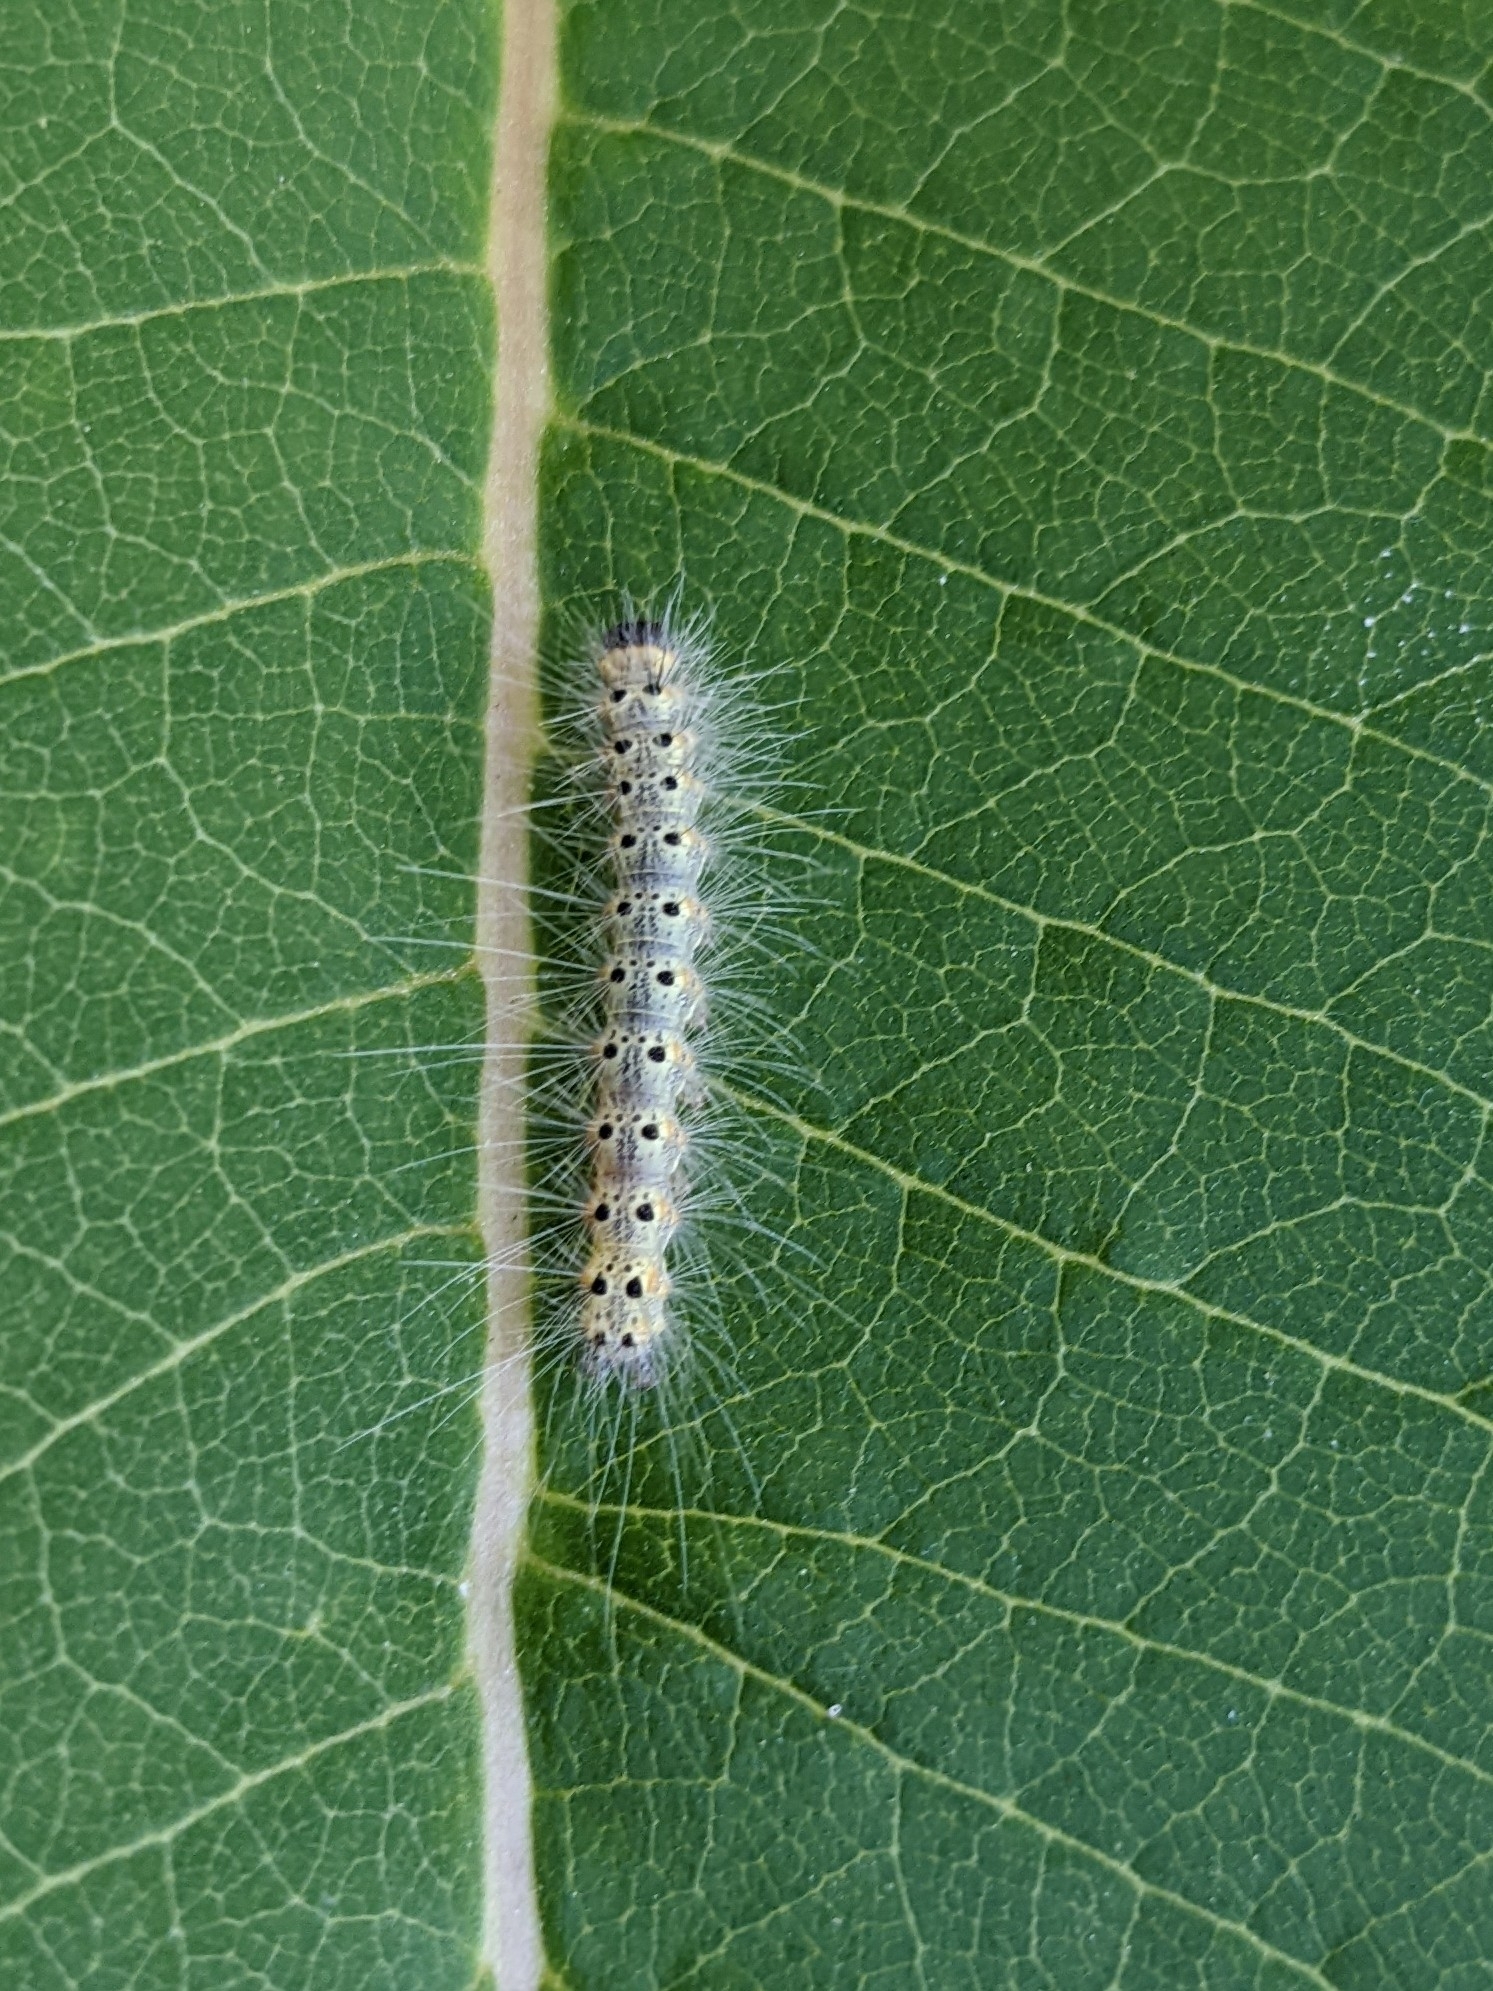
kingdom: Animalia
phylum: Arthropoda
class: Insecta
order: Lepidoptera
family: Erebidae
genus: Hyphantria
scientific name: Hyphantria cunea
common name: American white moth
